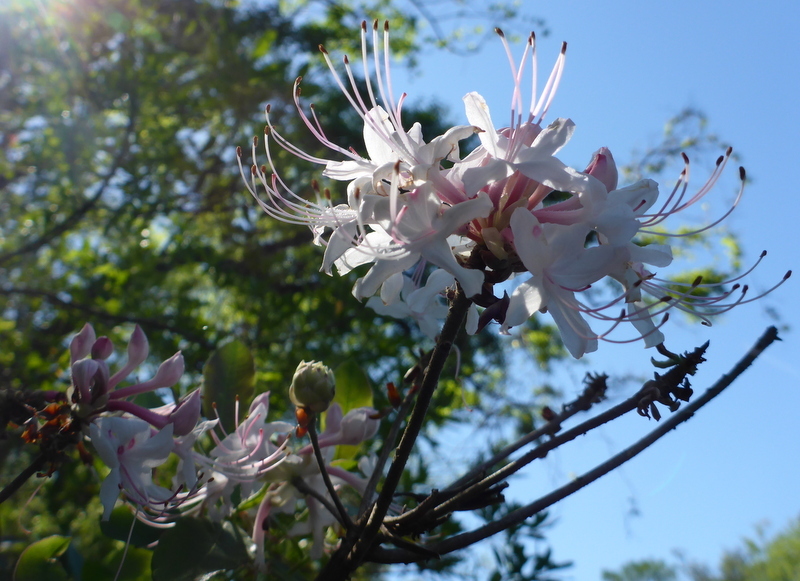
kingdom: Plantae
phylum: Tracheophyta
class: Magnoliopsida
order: Ericales
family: Ericaceae
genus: Rhododendron
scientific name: Rhododendron canescens
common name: Mountain azalea
